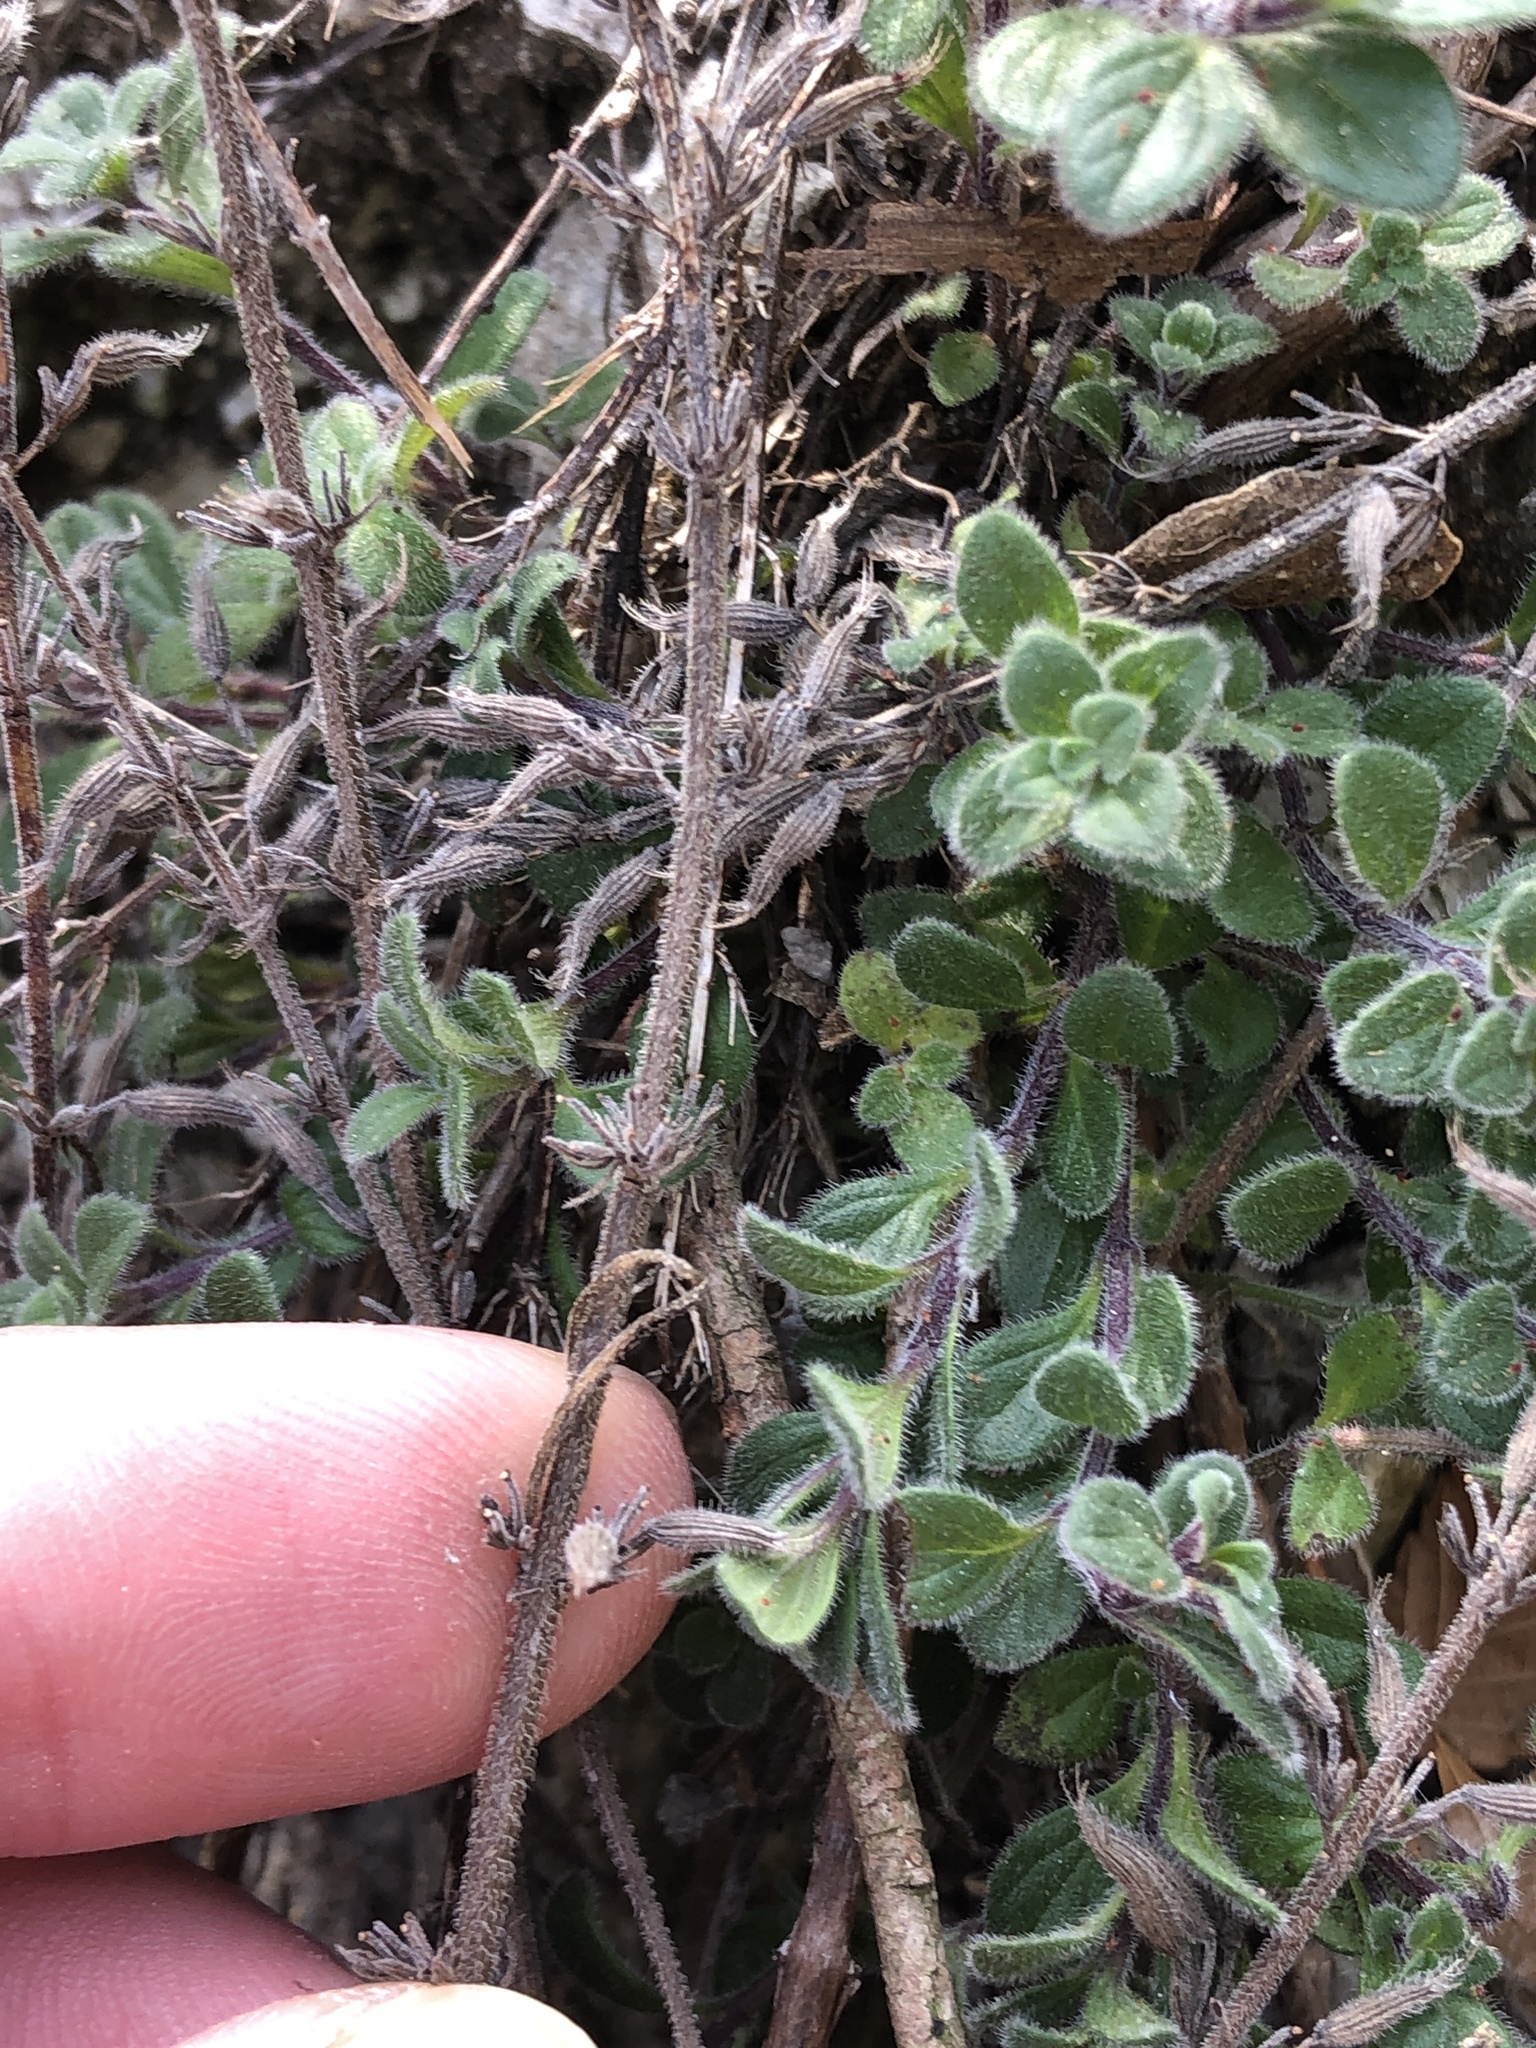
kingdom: Plantae
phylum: Tracheophyta
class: Magnoliopsida
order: Lamiales
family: Lamiaceae
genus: Hedeoma
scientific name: Hedeoma reverchonii
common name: Reverchon's false penny-royal
